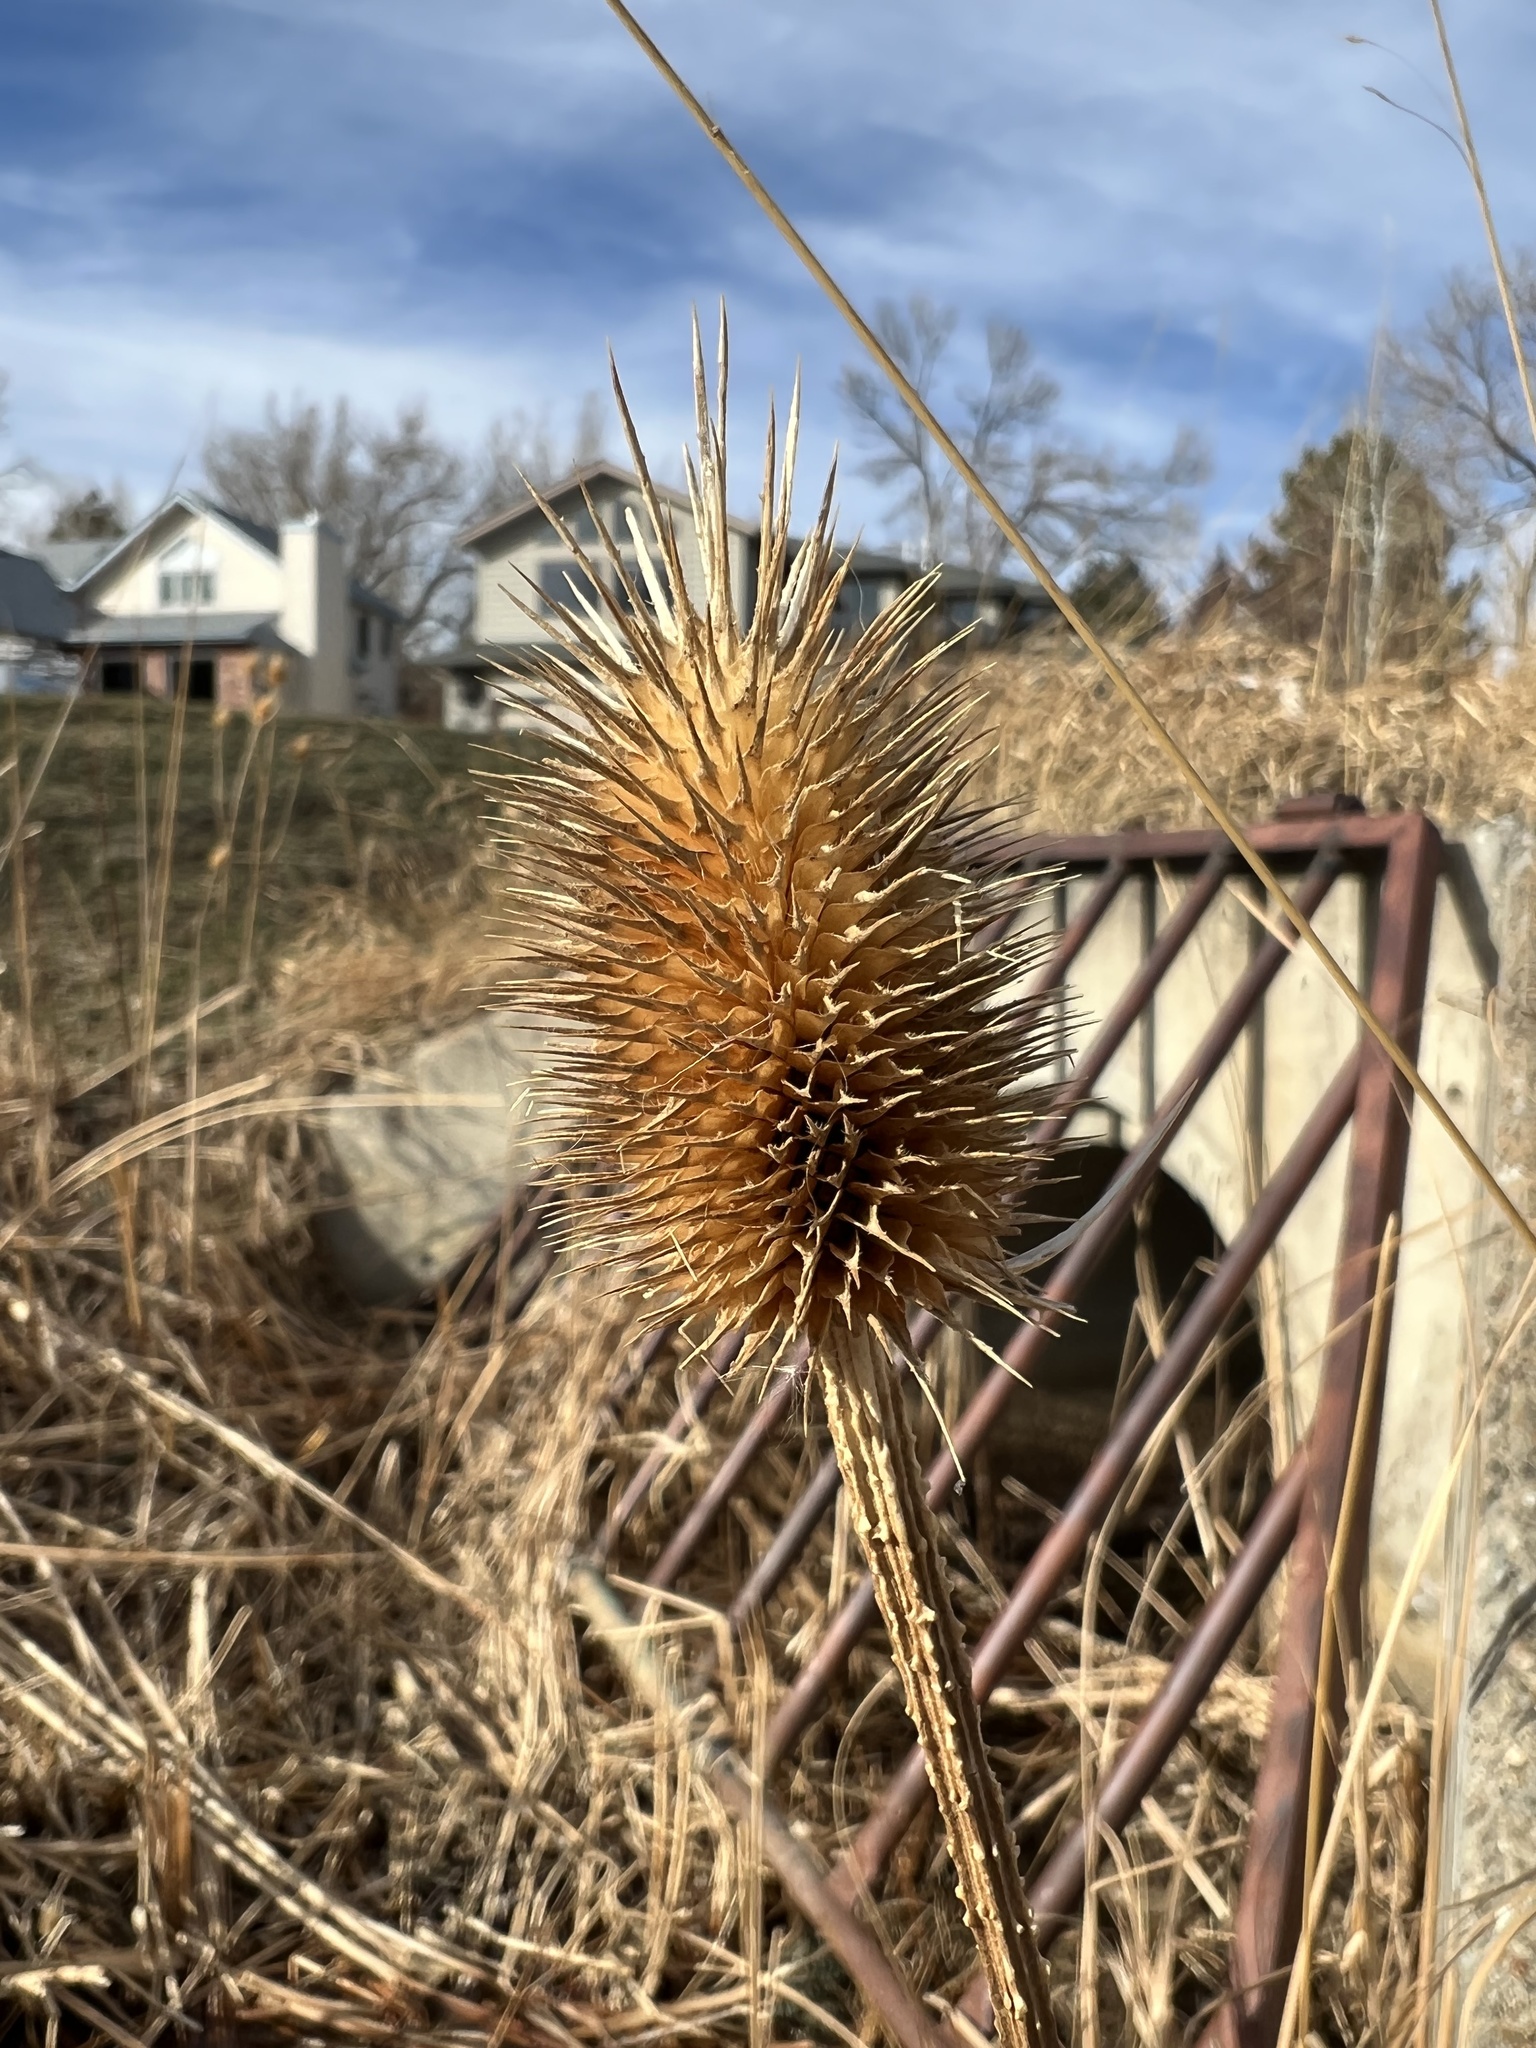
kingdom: Plantae
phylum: Tracheophyta
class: Magnoliopsida
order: Dipsacales
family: Caprifoliaceae
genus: Dipsacus
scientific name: Dipsacus fullonum
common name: Teasel
